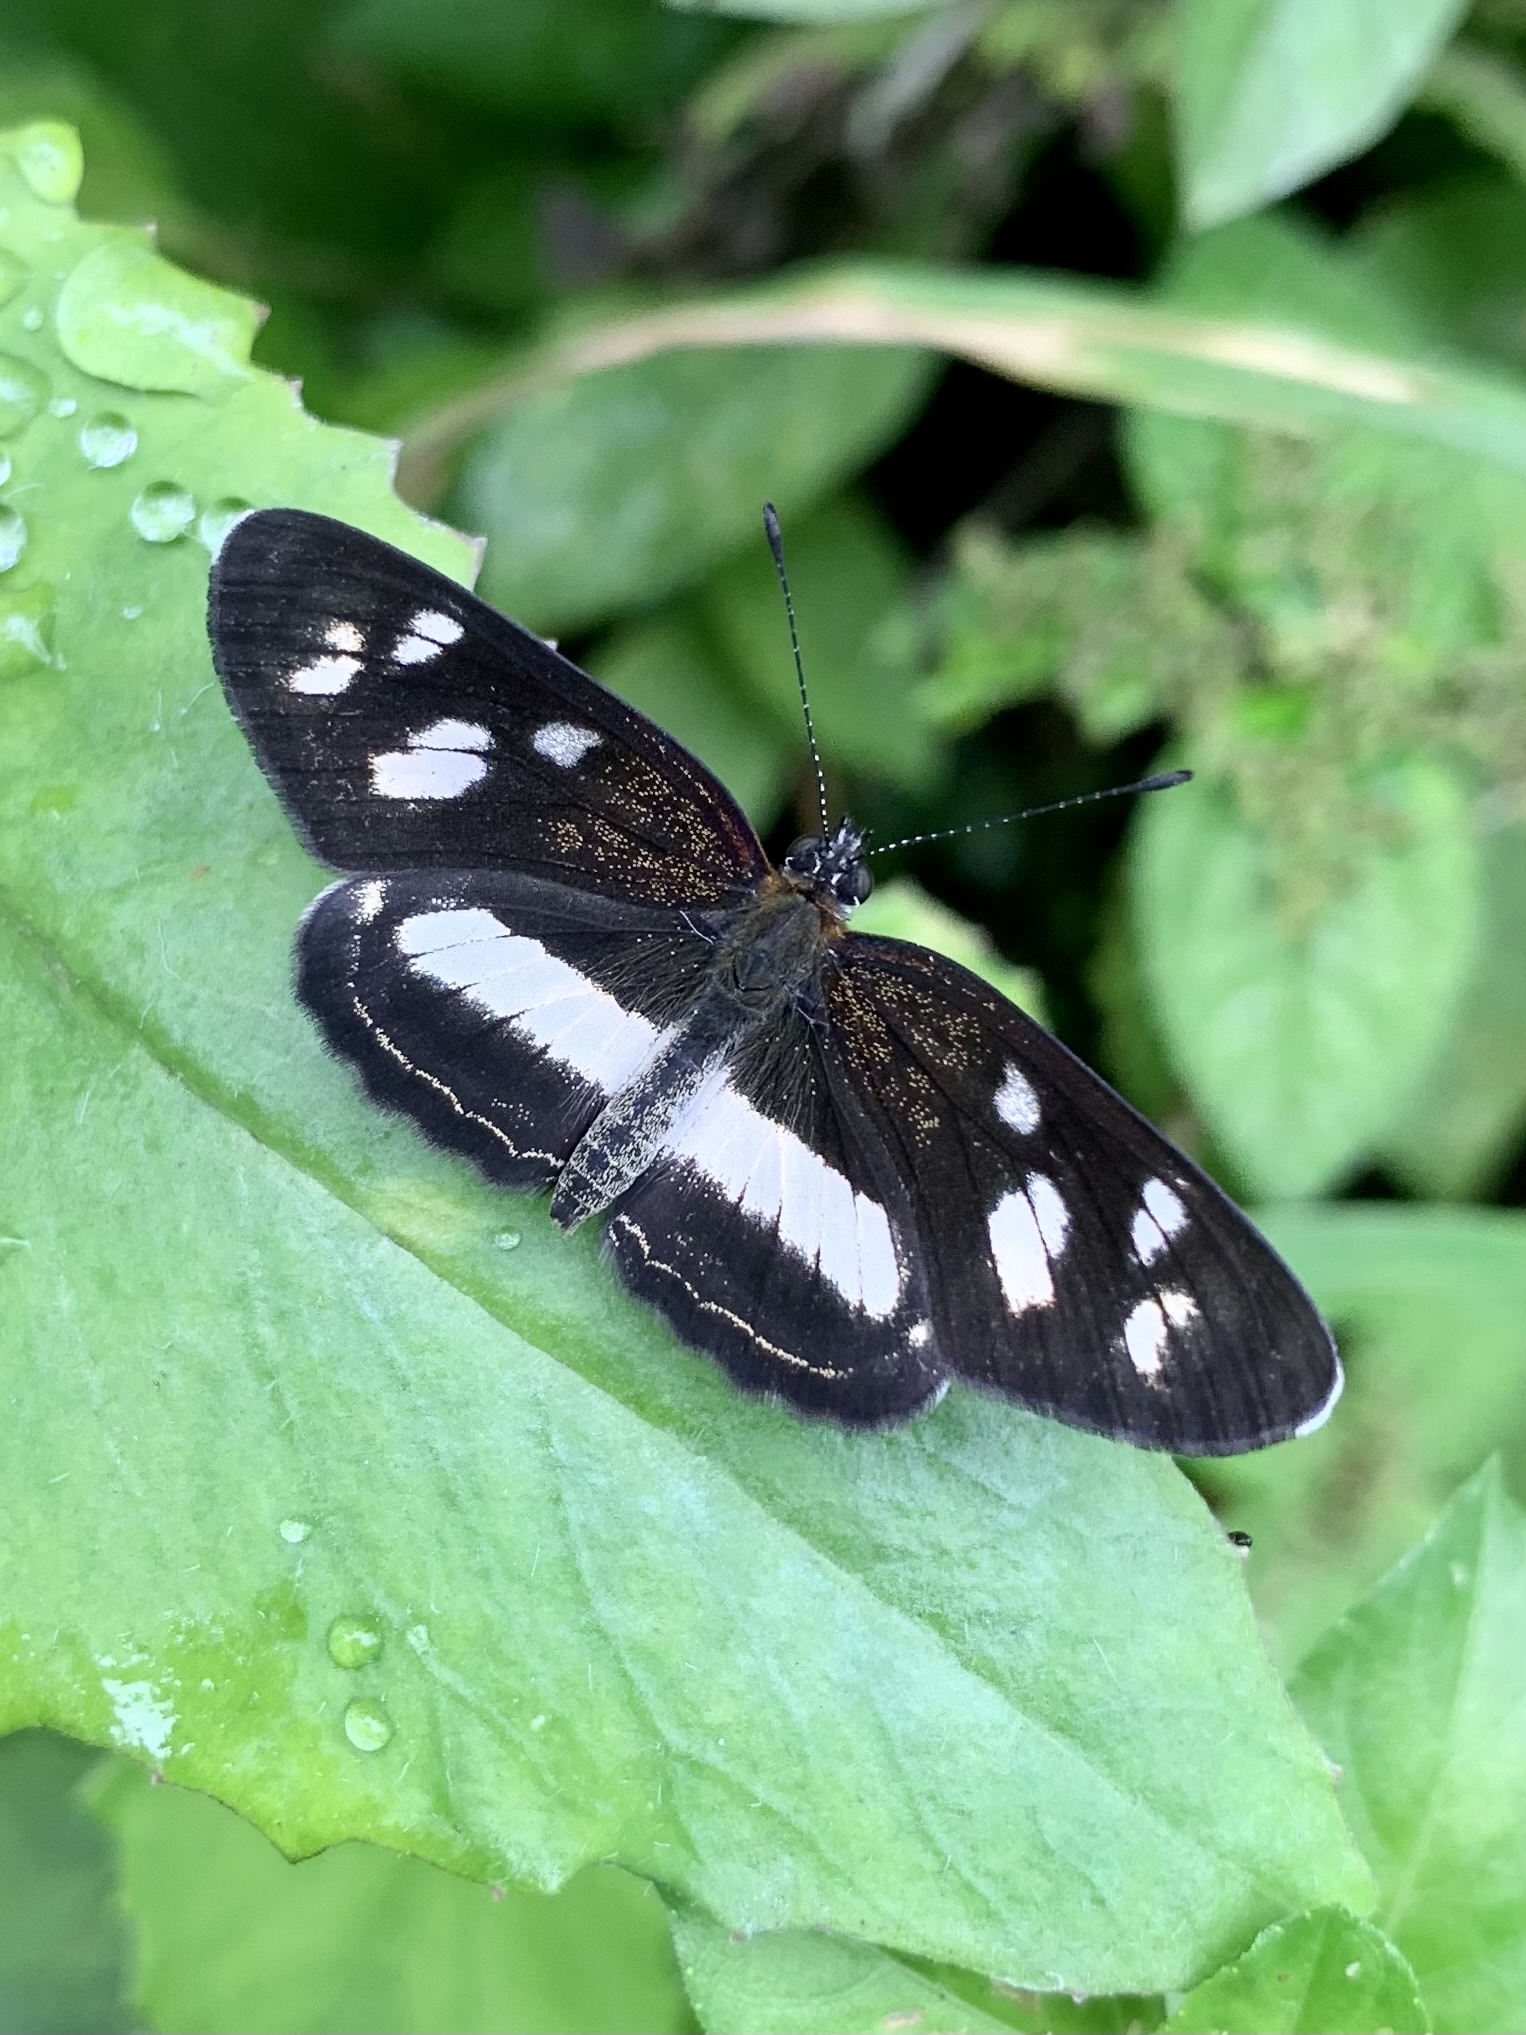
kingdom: Animalia
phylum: Arthropoda
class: Insecta
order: Lepidoptera
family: Nymphalidae
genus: Eresia
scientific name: Eresia clio
